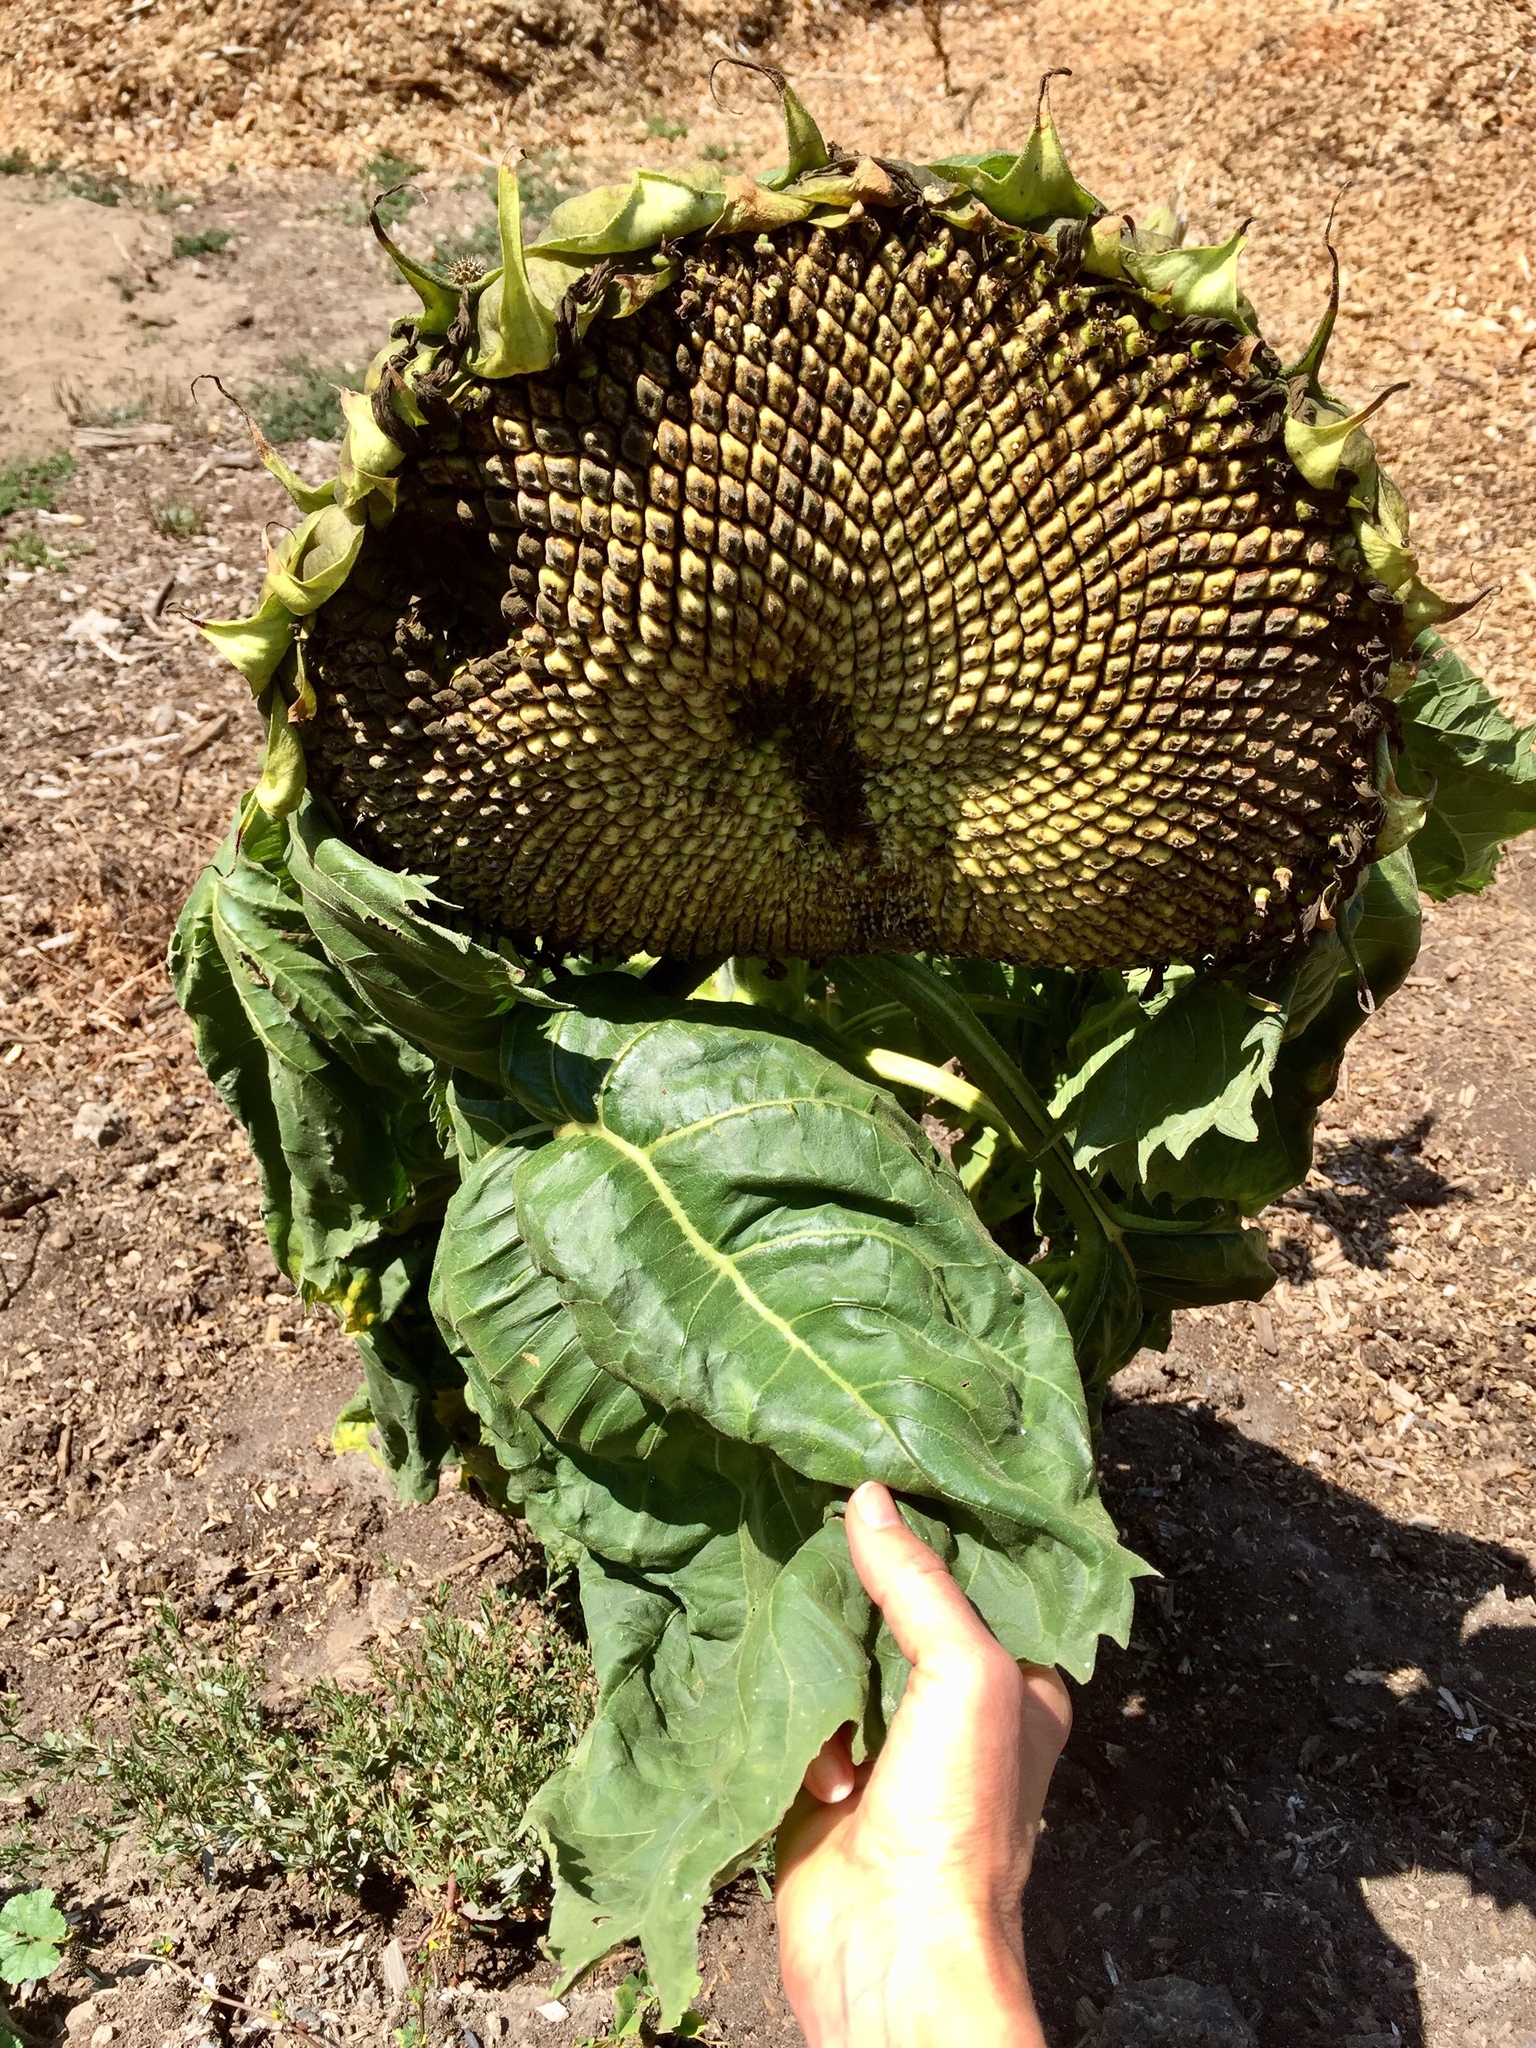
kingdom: Plantae
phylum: Tracheophyta
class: Magnoliopsida
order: Asterales
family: Asteraceae
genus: Helianthus
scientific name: Helianthus annuus
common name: Sunflower
